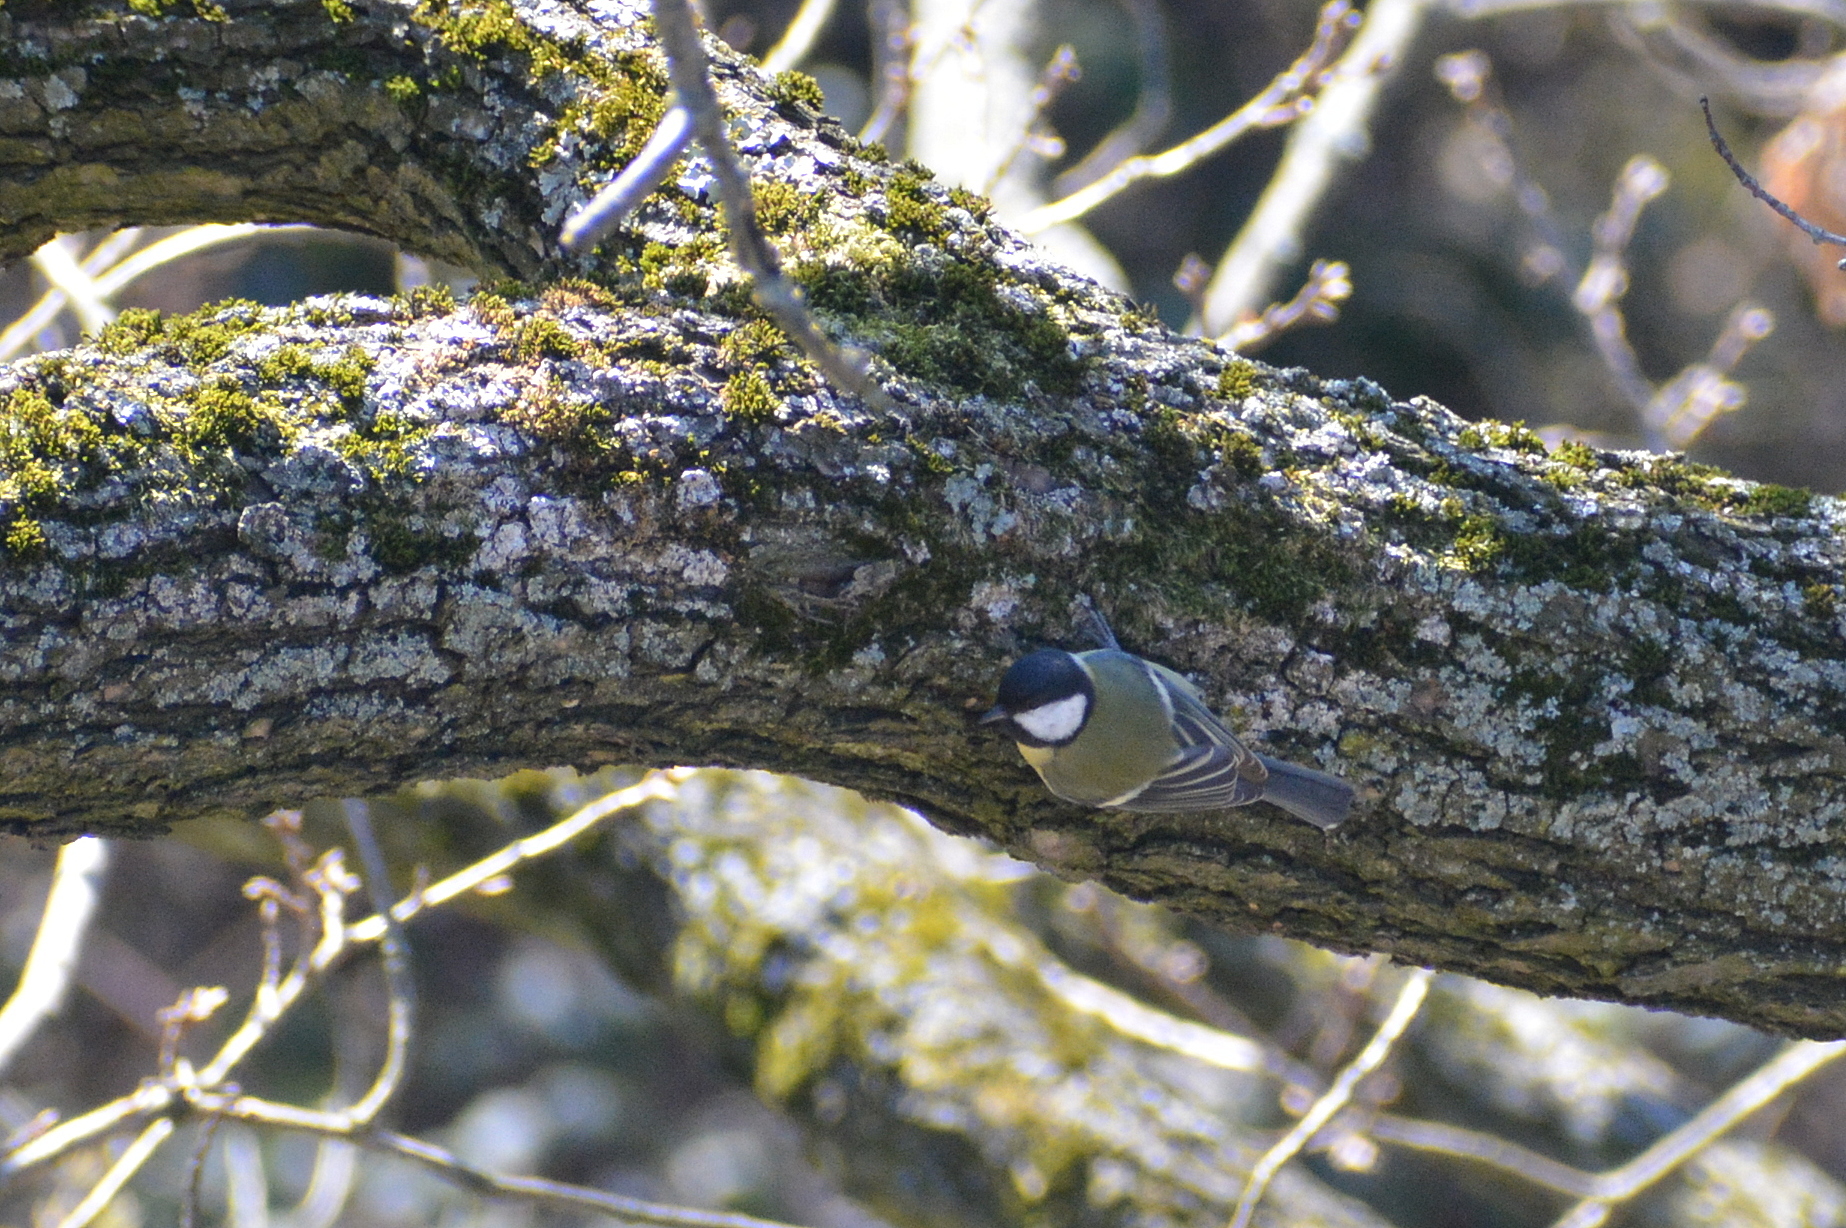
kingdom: Animalia
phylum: Chordata
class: Aves
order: Passeriformes
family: Paridae
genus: Parus
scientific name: Parus major
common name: Great tit
